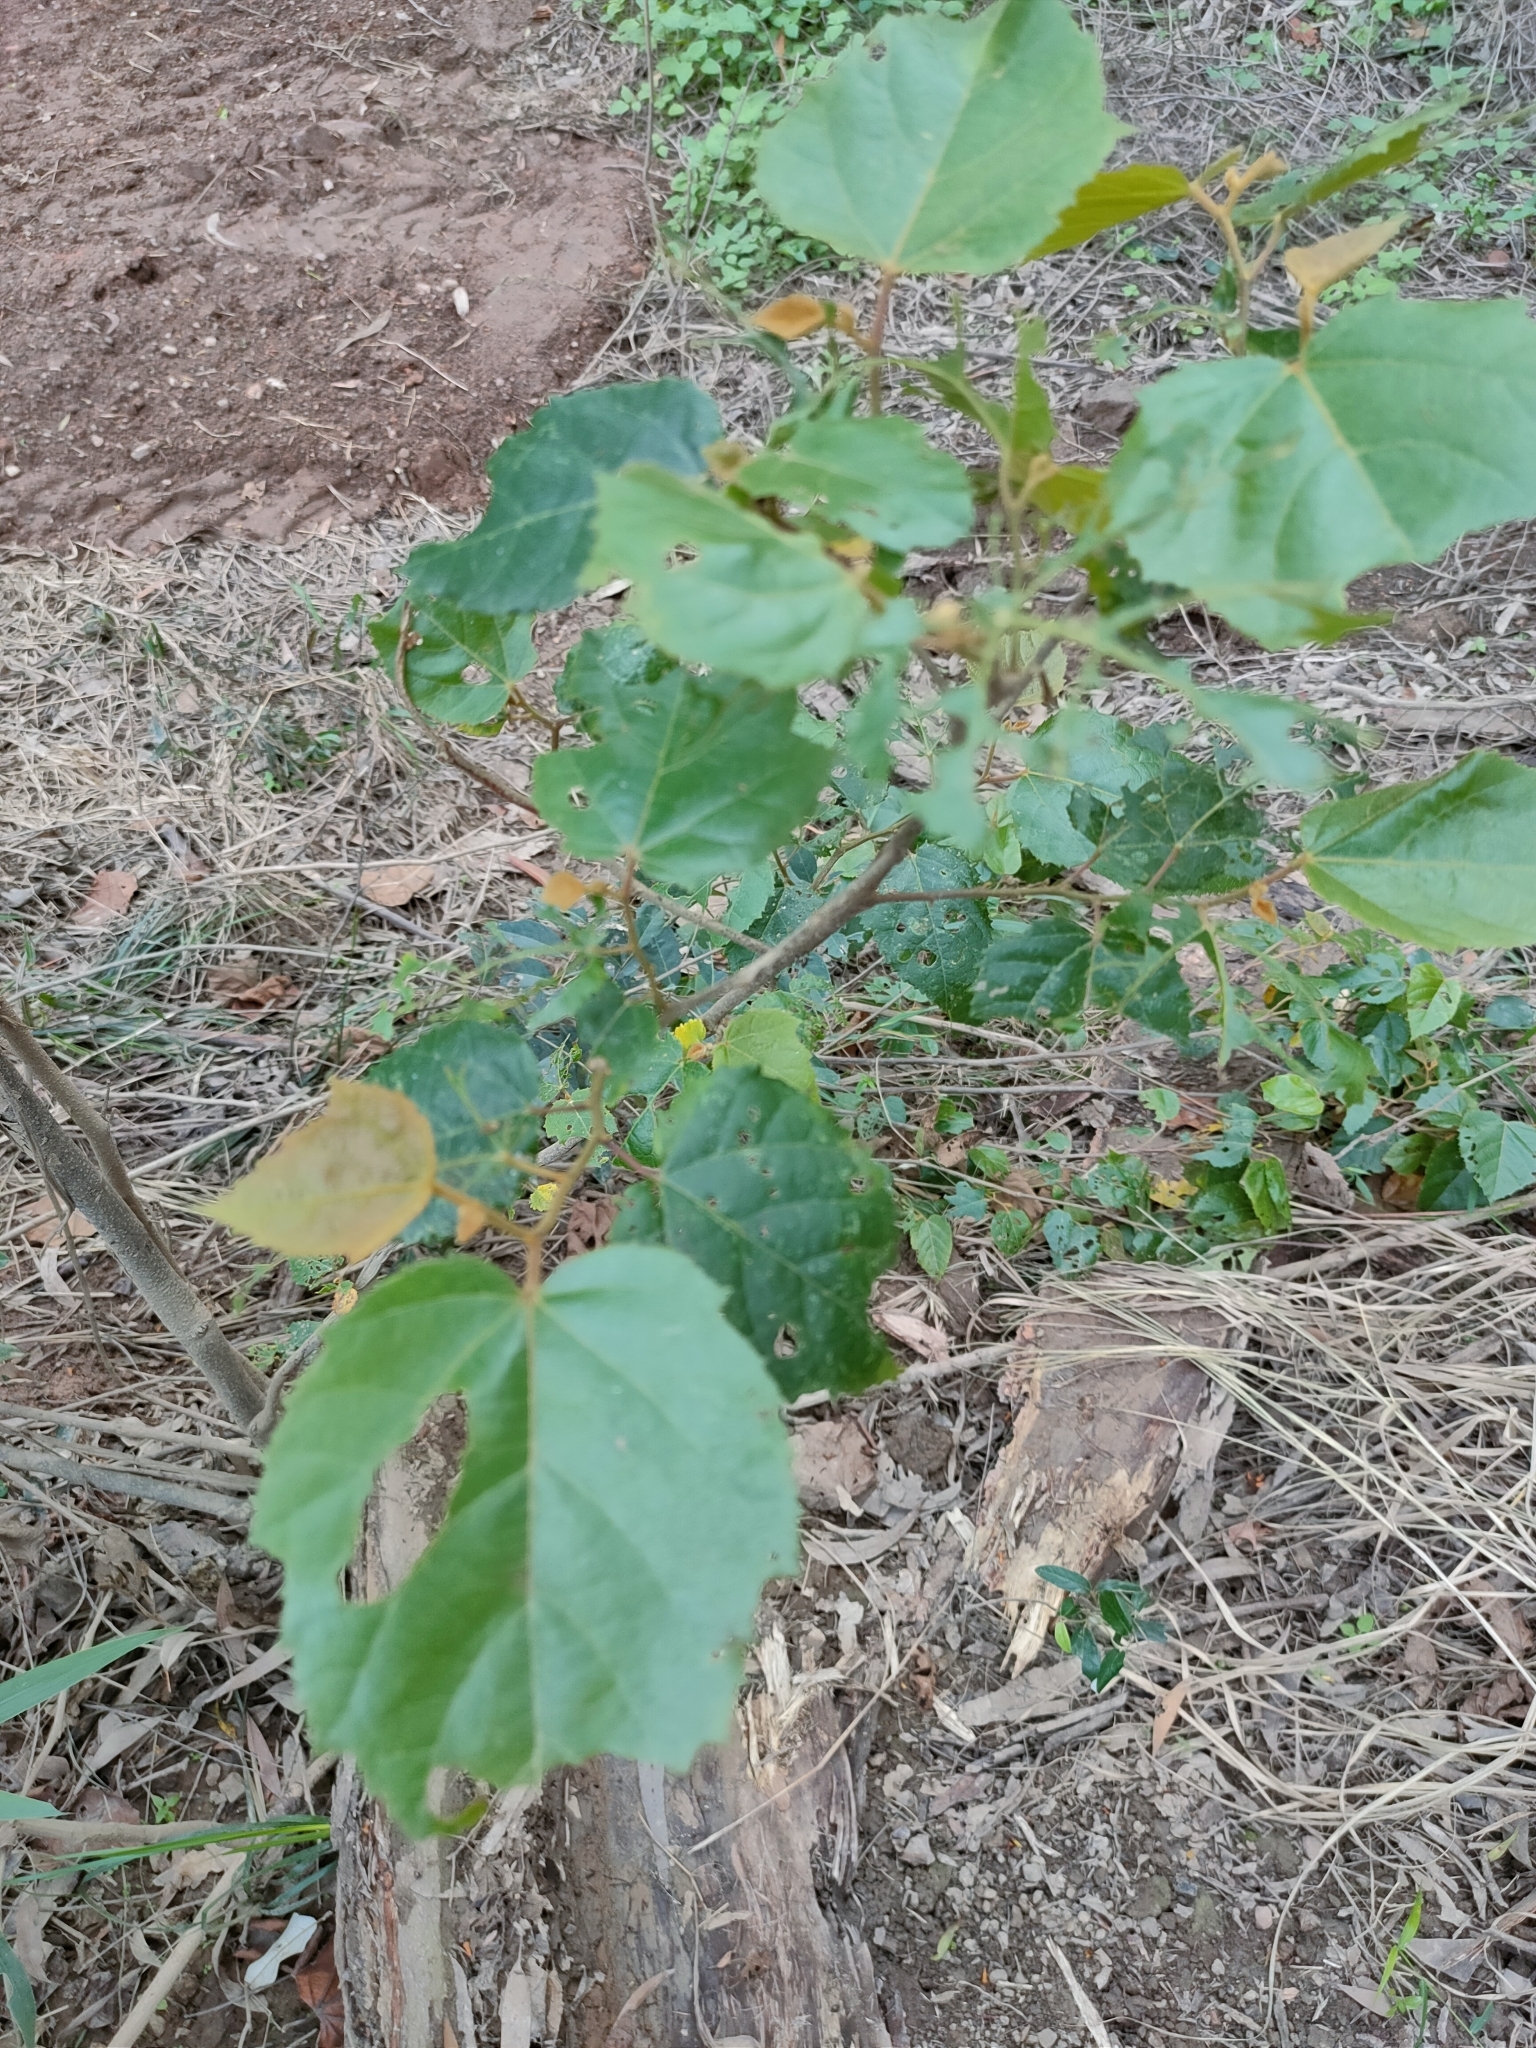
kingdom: Plantae
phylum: Tracheophyta
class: Magnoliopsida
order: Malvales
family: Malvaceae
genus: Commersonia
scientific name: Commersonia bartramia
